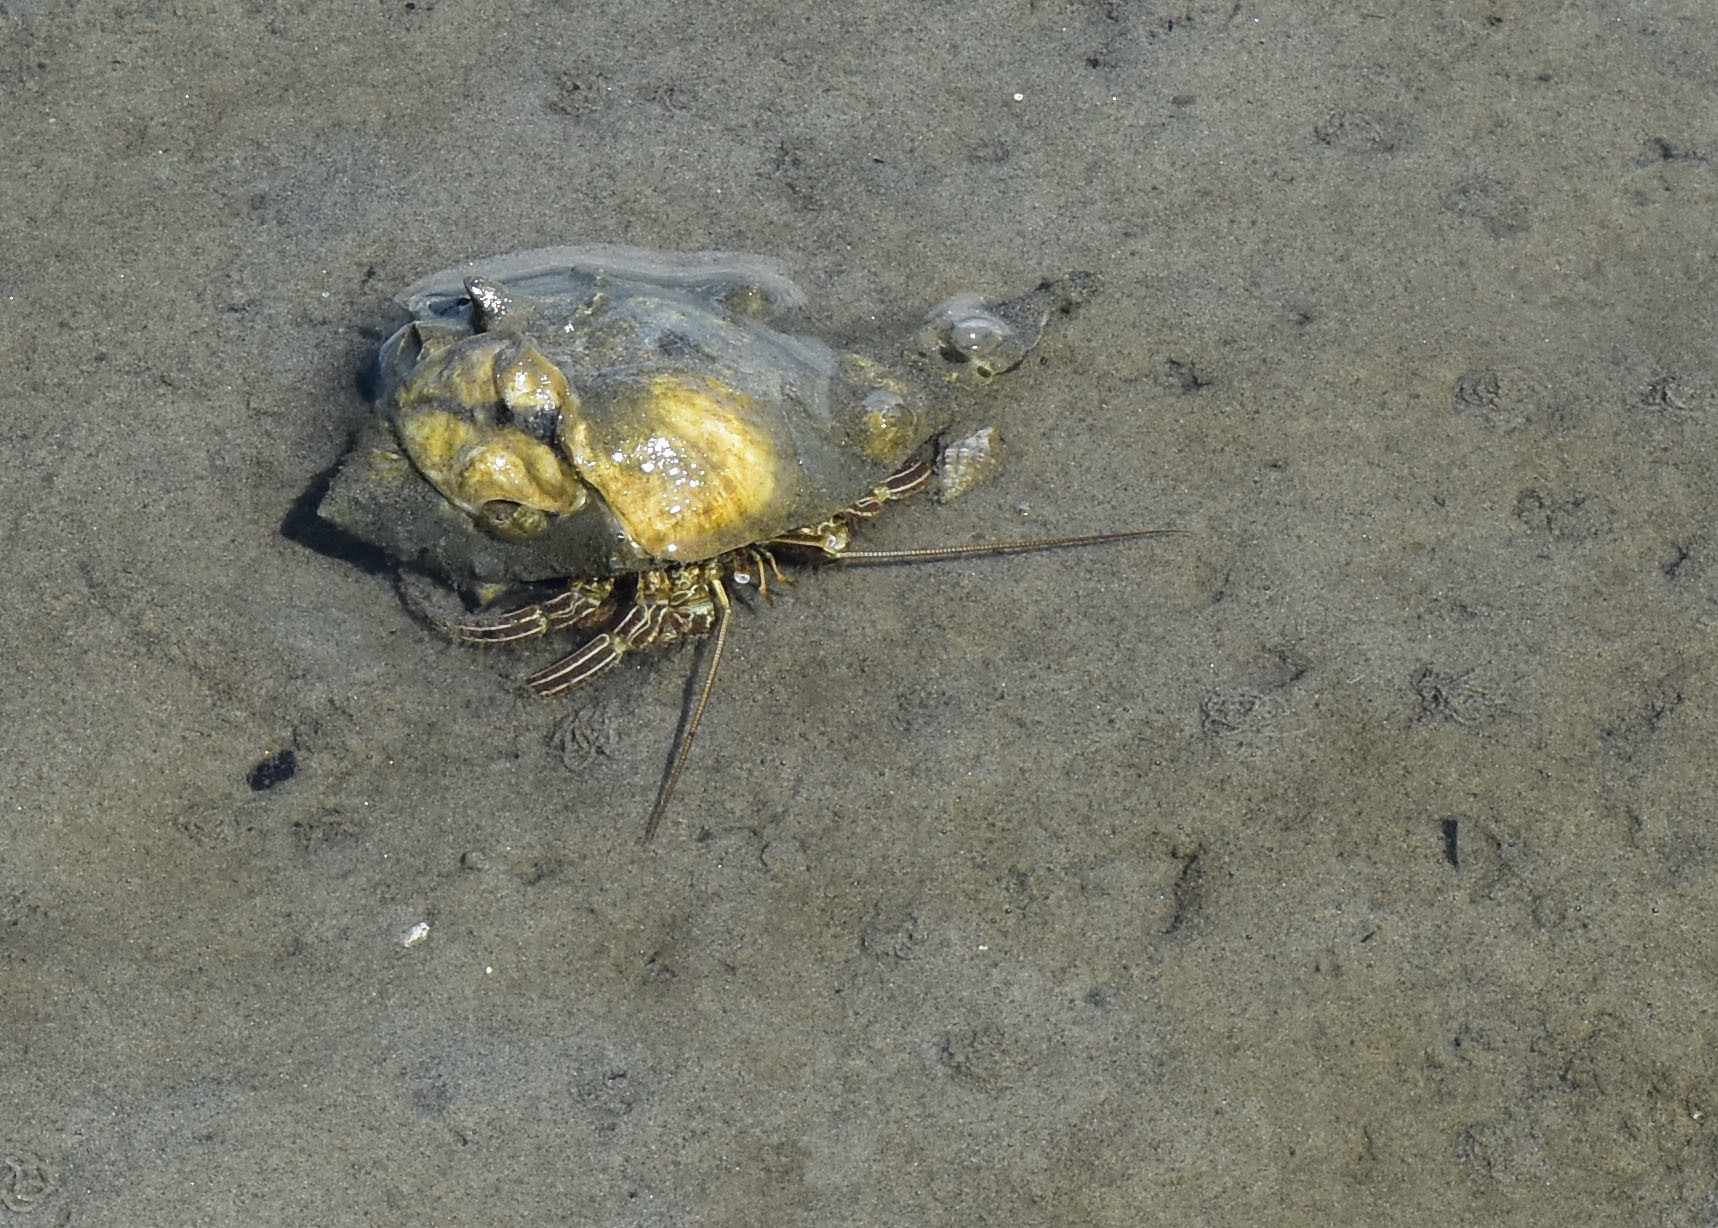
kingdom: Animalia
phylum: Arthropoda
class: Malacostraca
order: Decapoda
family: Diogenidae
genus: Clibanarius
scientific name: Clibanarius vittatus
